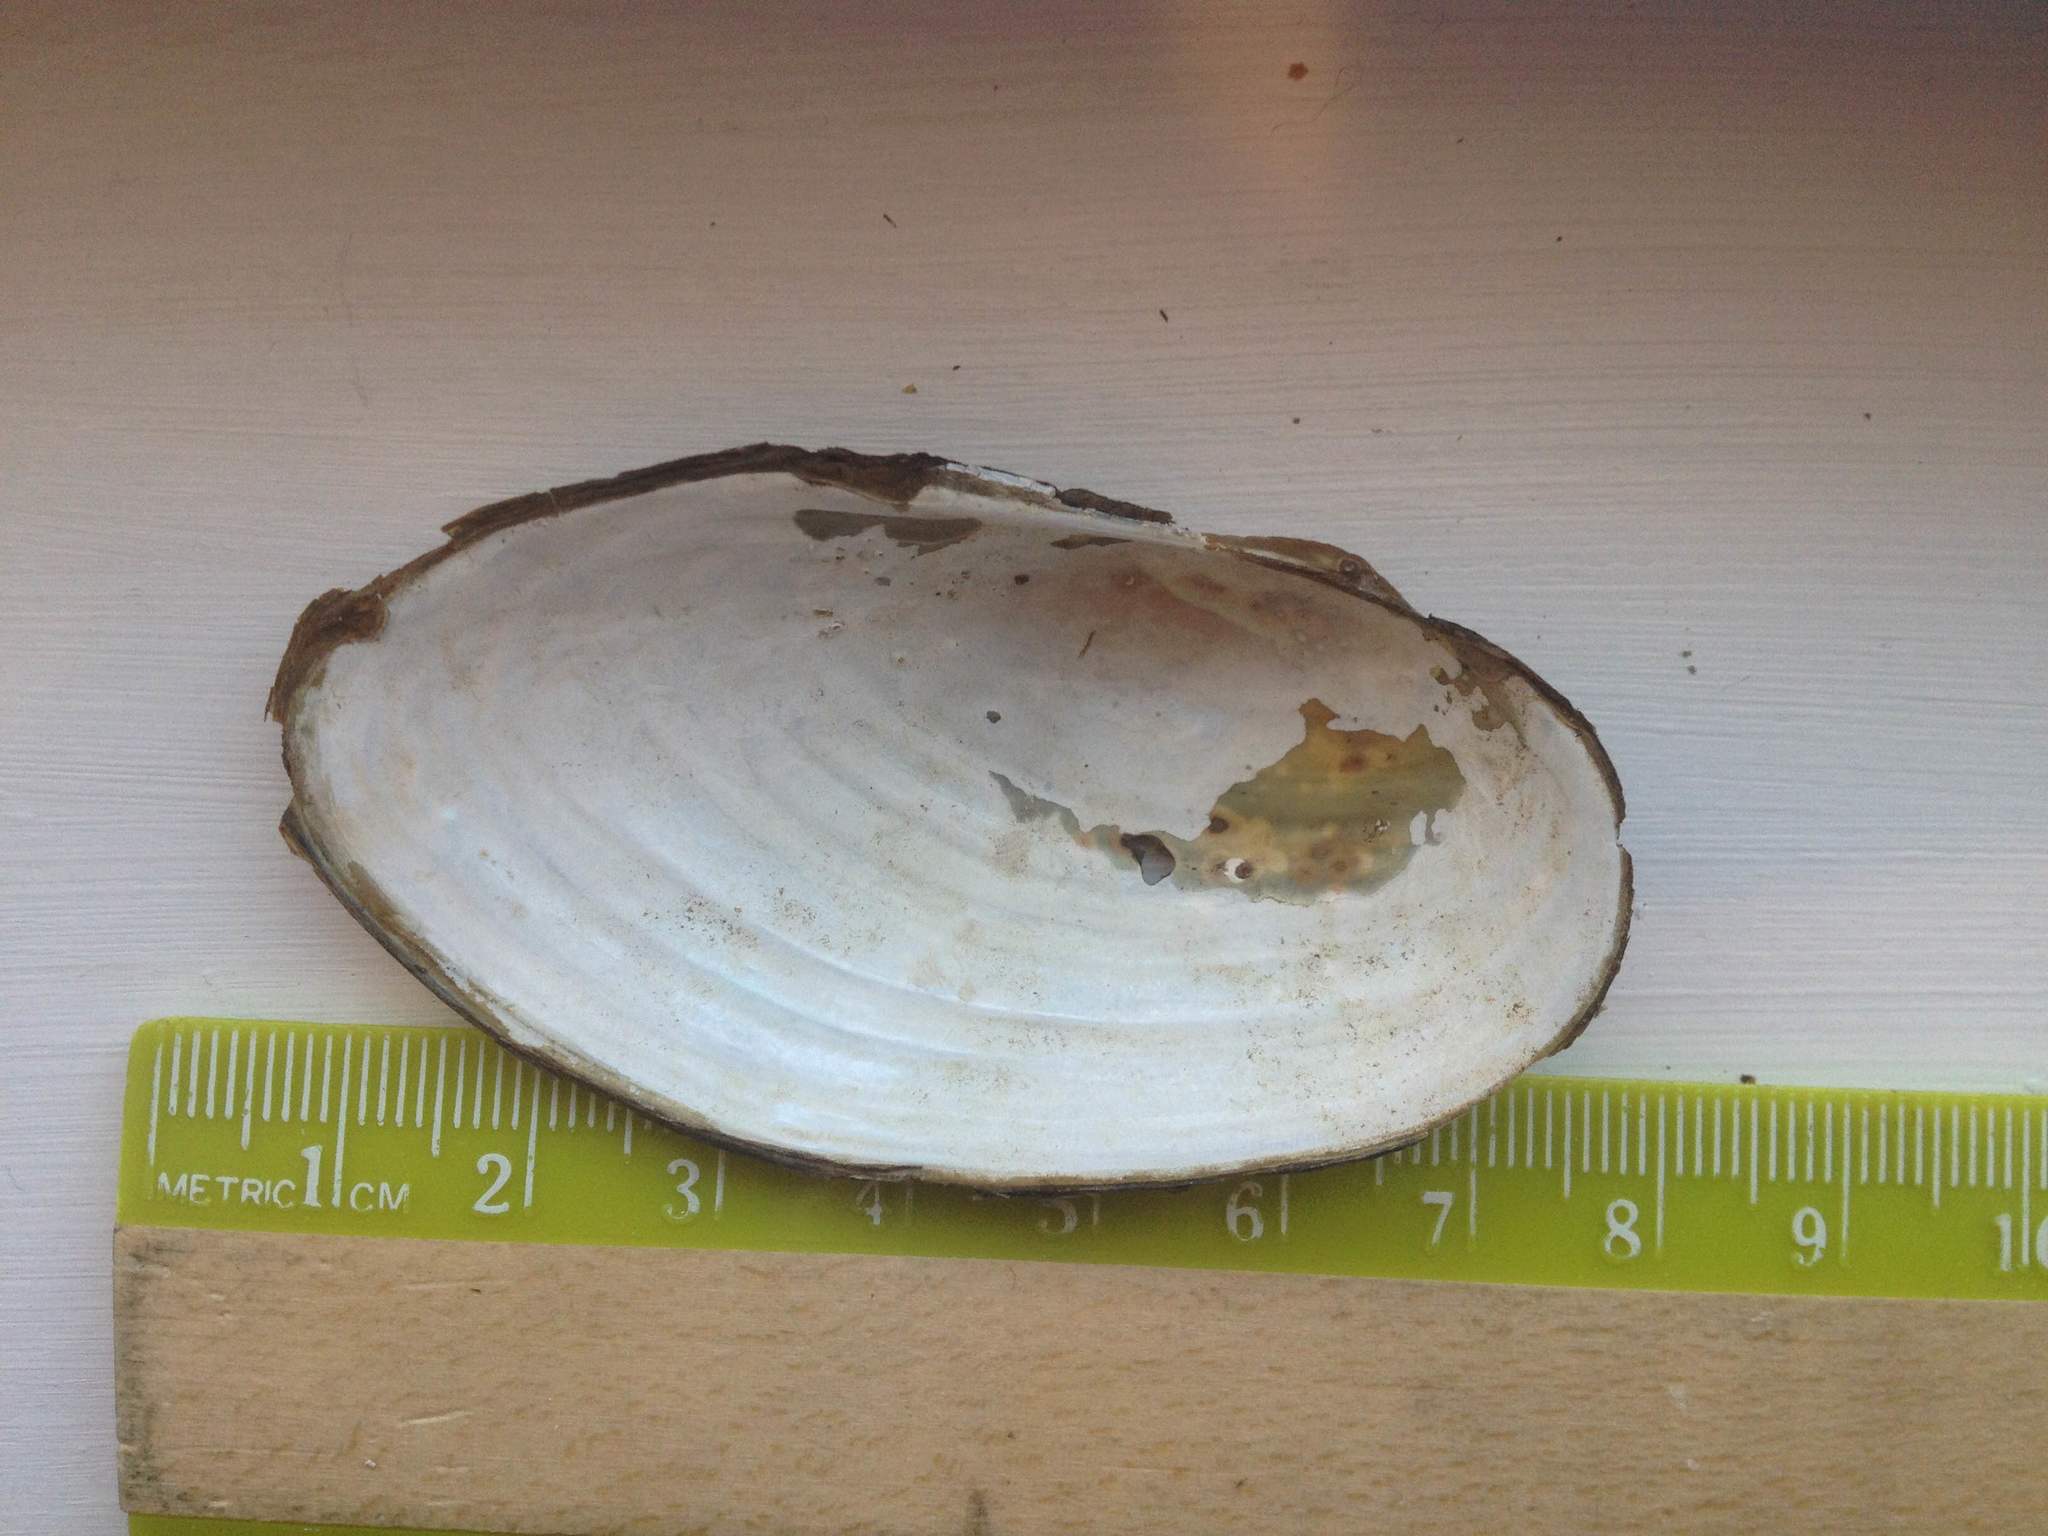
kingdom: Animalia
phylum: Mollusca
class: Bivalvia
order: Unionida
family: Unionidae
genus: Pyganodon
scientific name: Pyganodon cataracta
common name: Eastern floater
